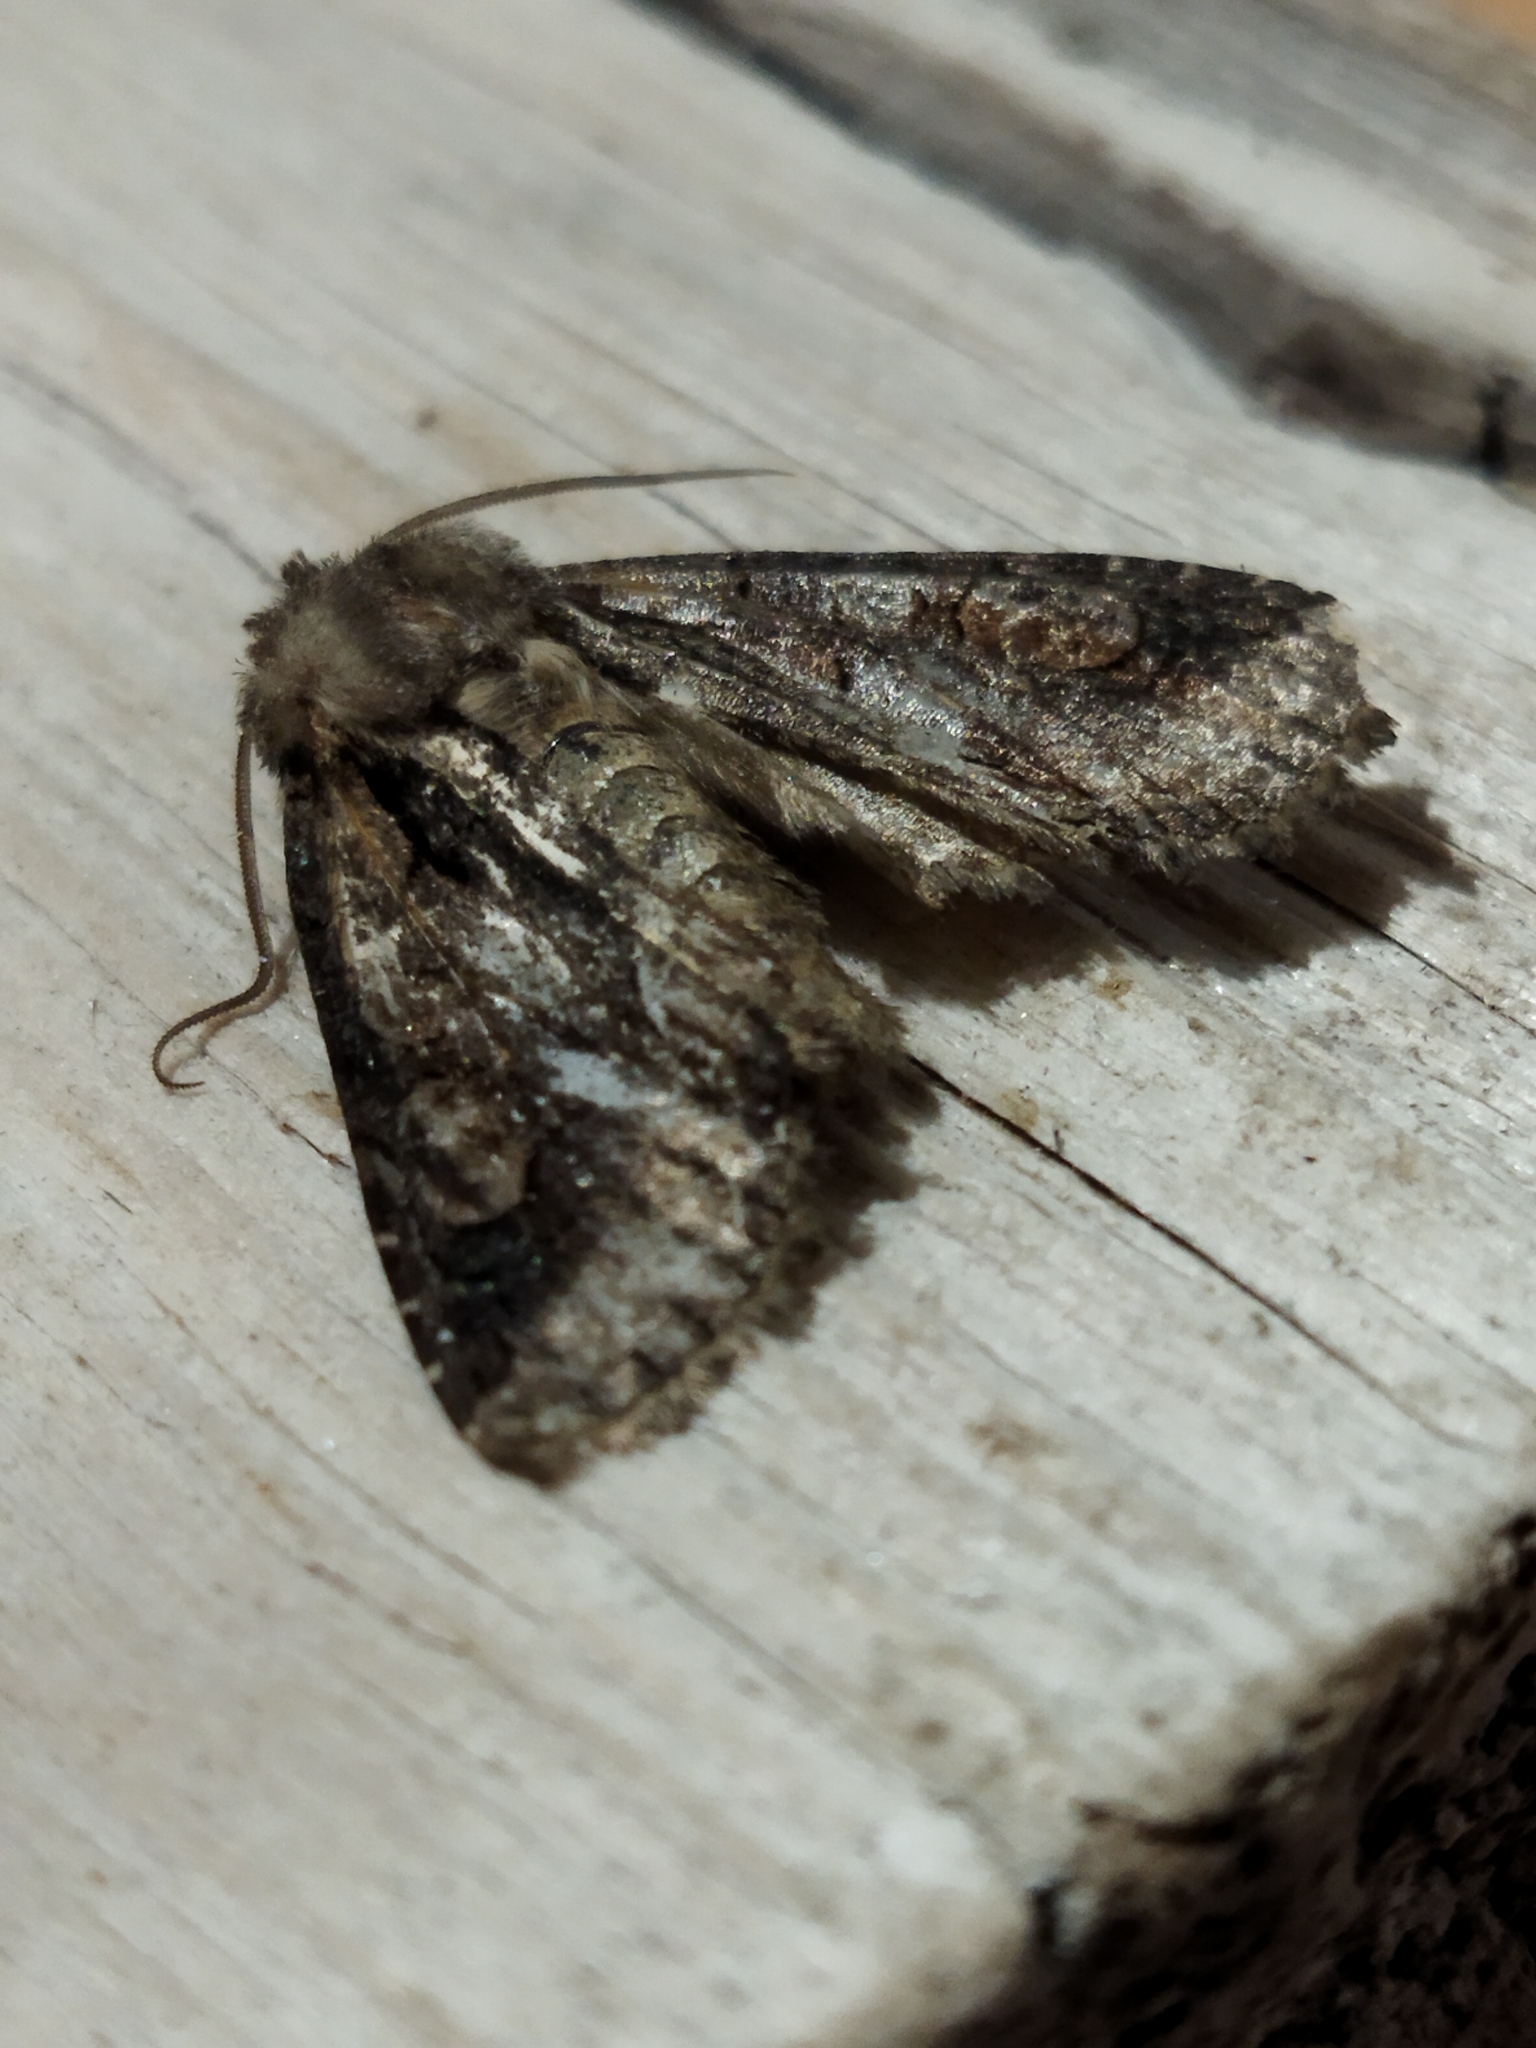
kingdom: Animalia
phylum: Arthropoda
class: Insecta
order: Lepidoptera
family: Noctuidae
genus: Allophyes
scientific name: Allophyes oxyacanthae
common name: Green-brindled crescent
